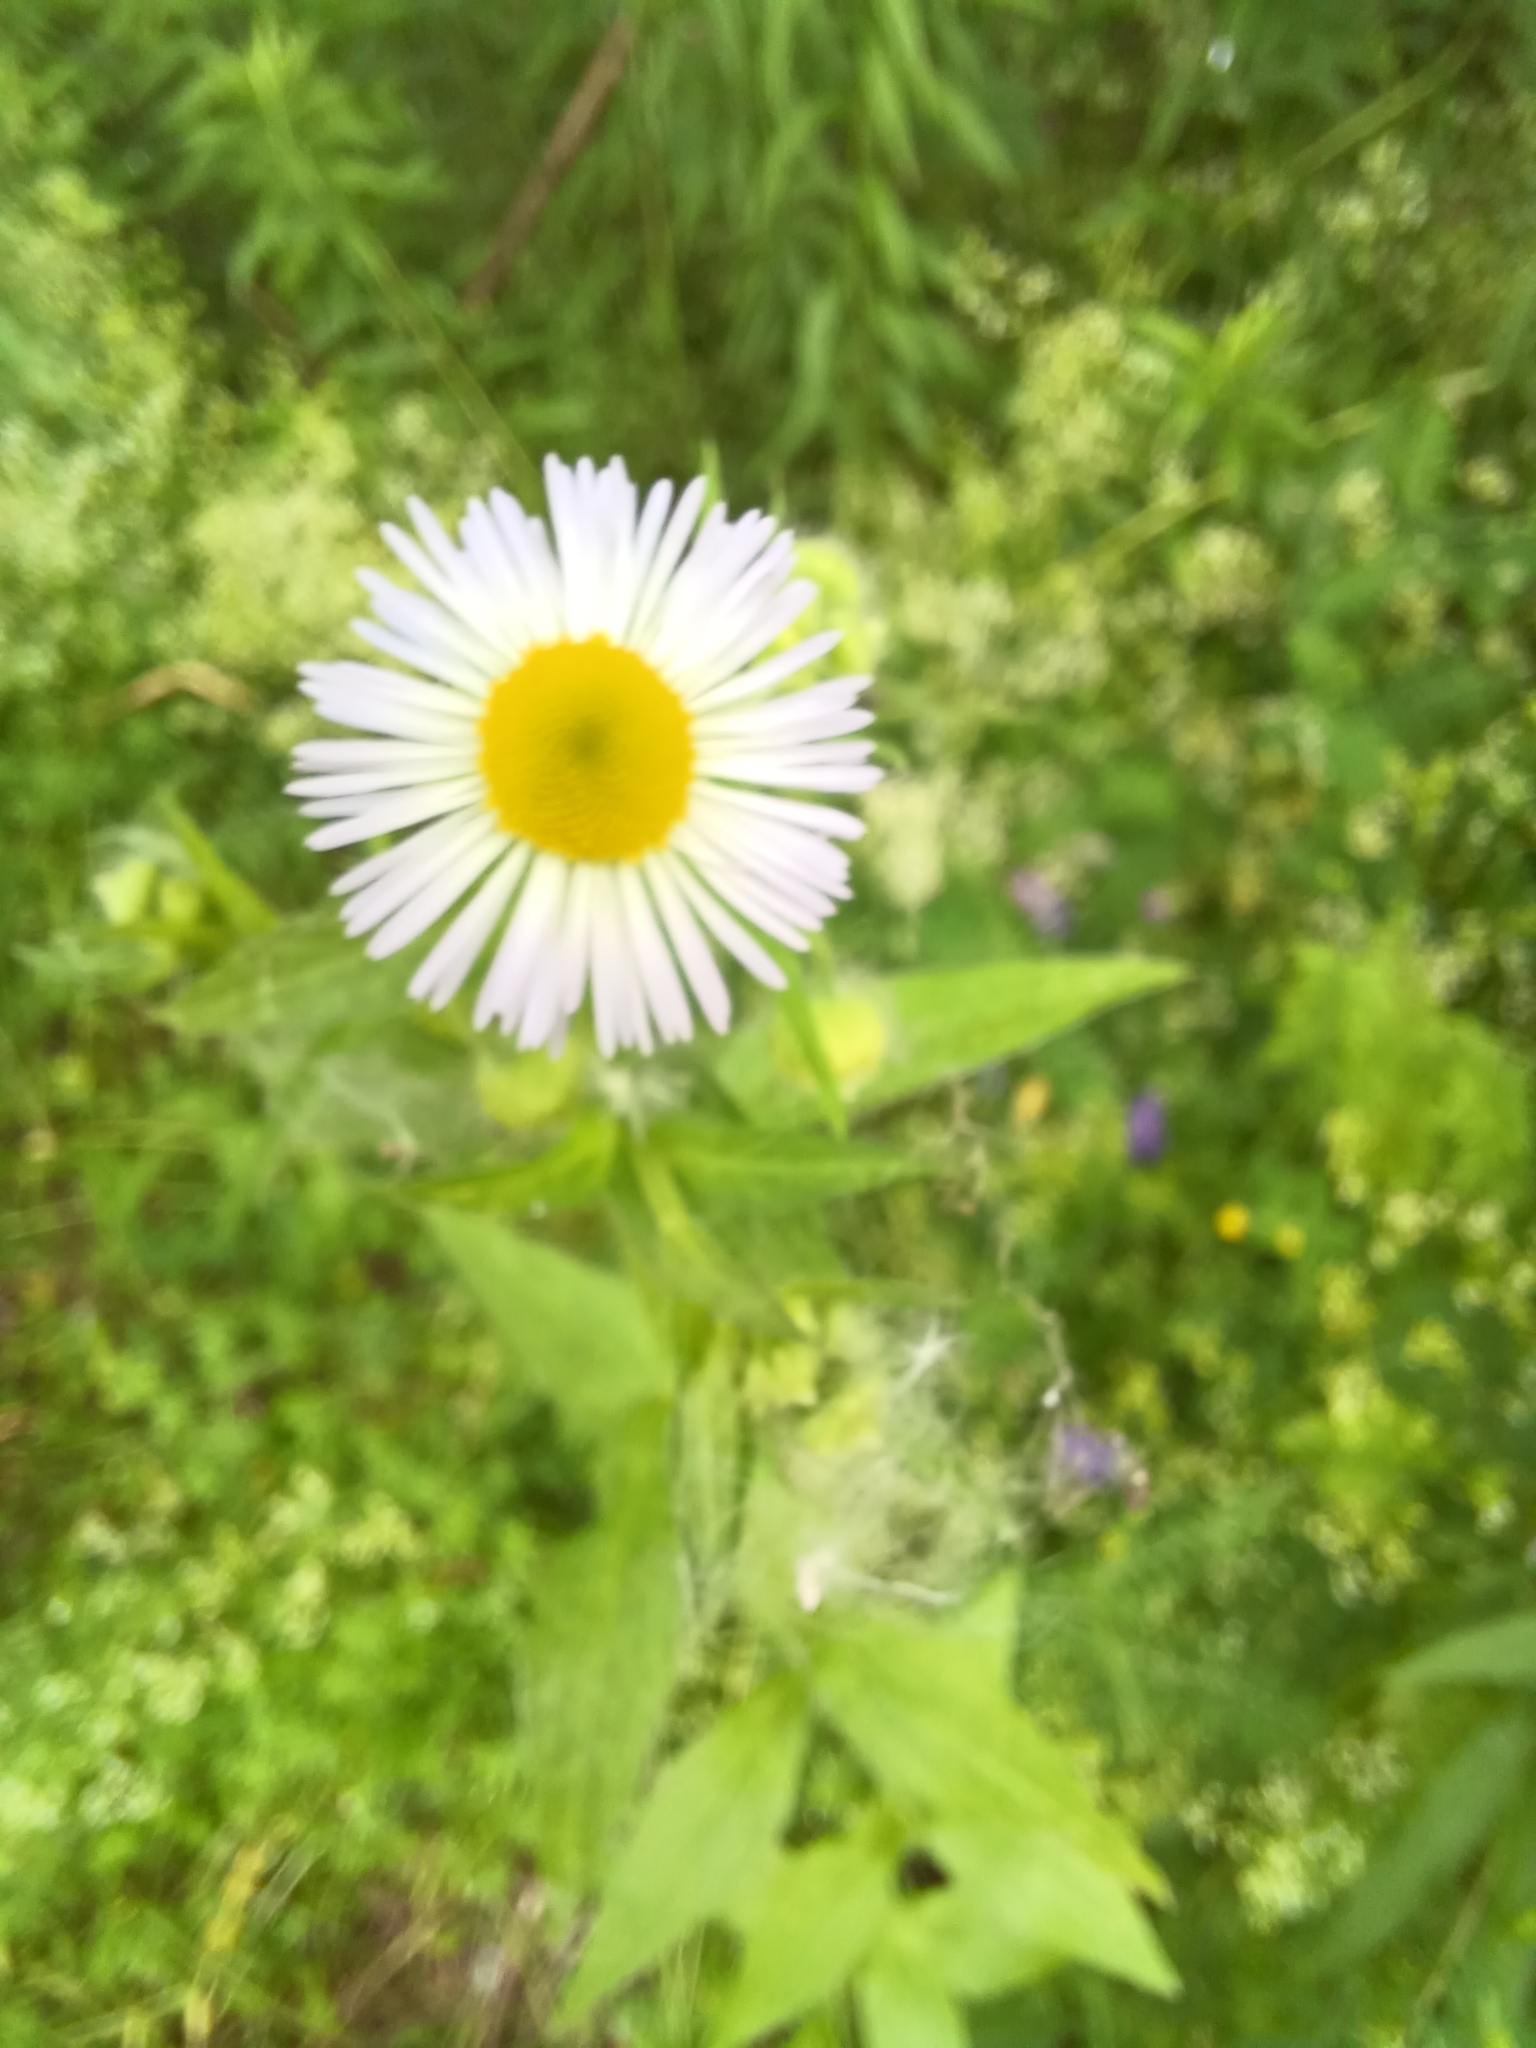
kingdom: Plantae
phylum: Tracheophyta
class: Magnoliopsida
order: Asterales
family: Asteraceae
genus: Erigeron
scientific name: Erigeron annuus
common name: Tall fleabane
